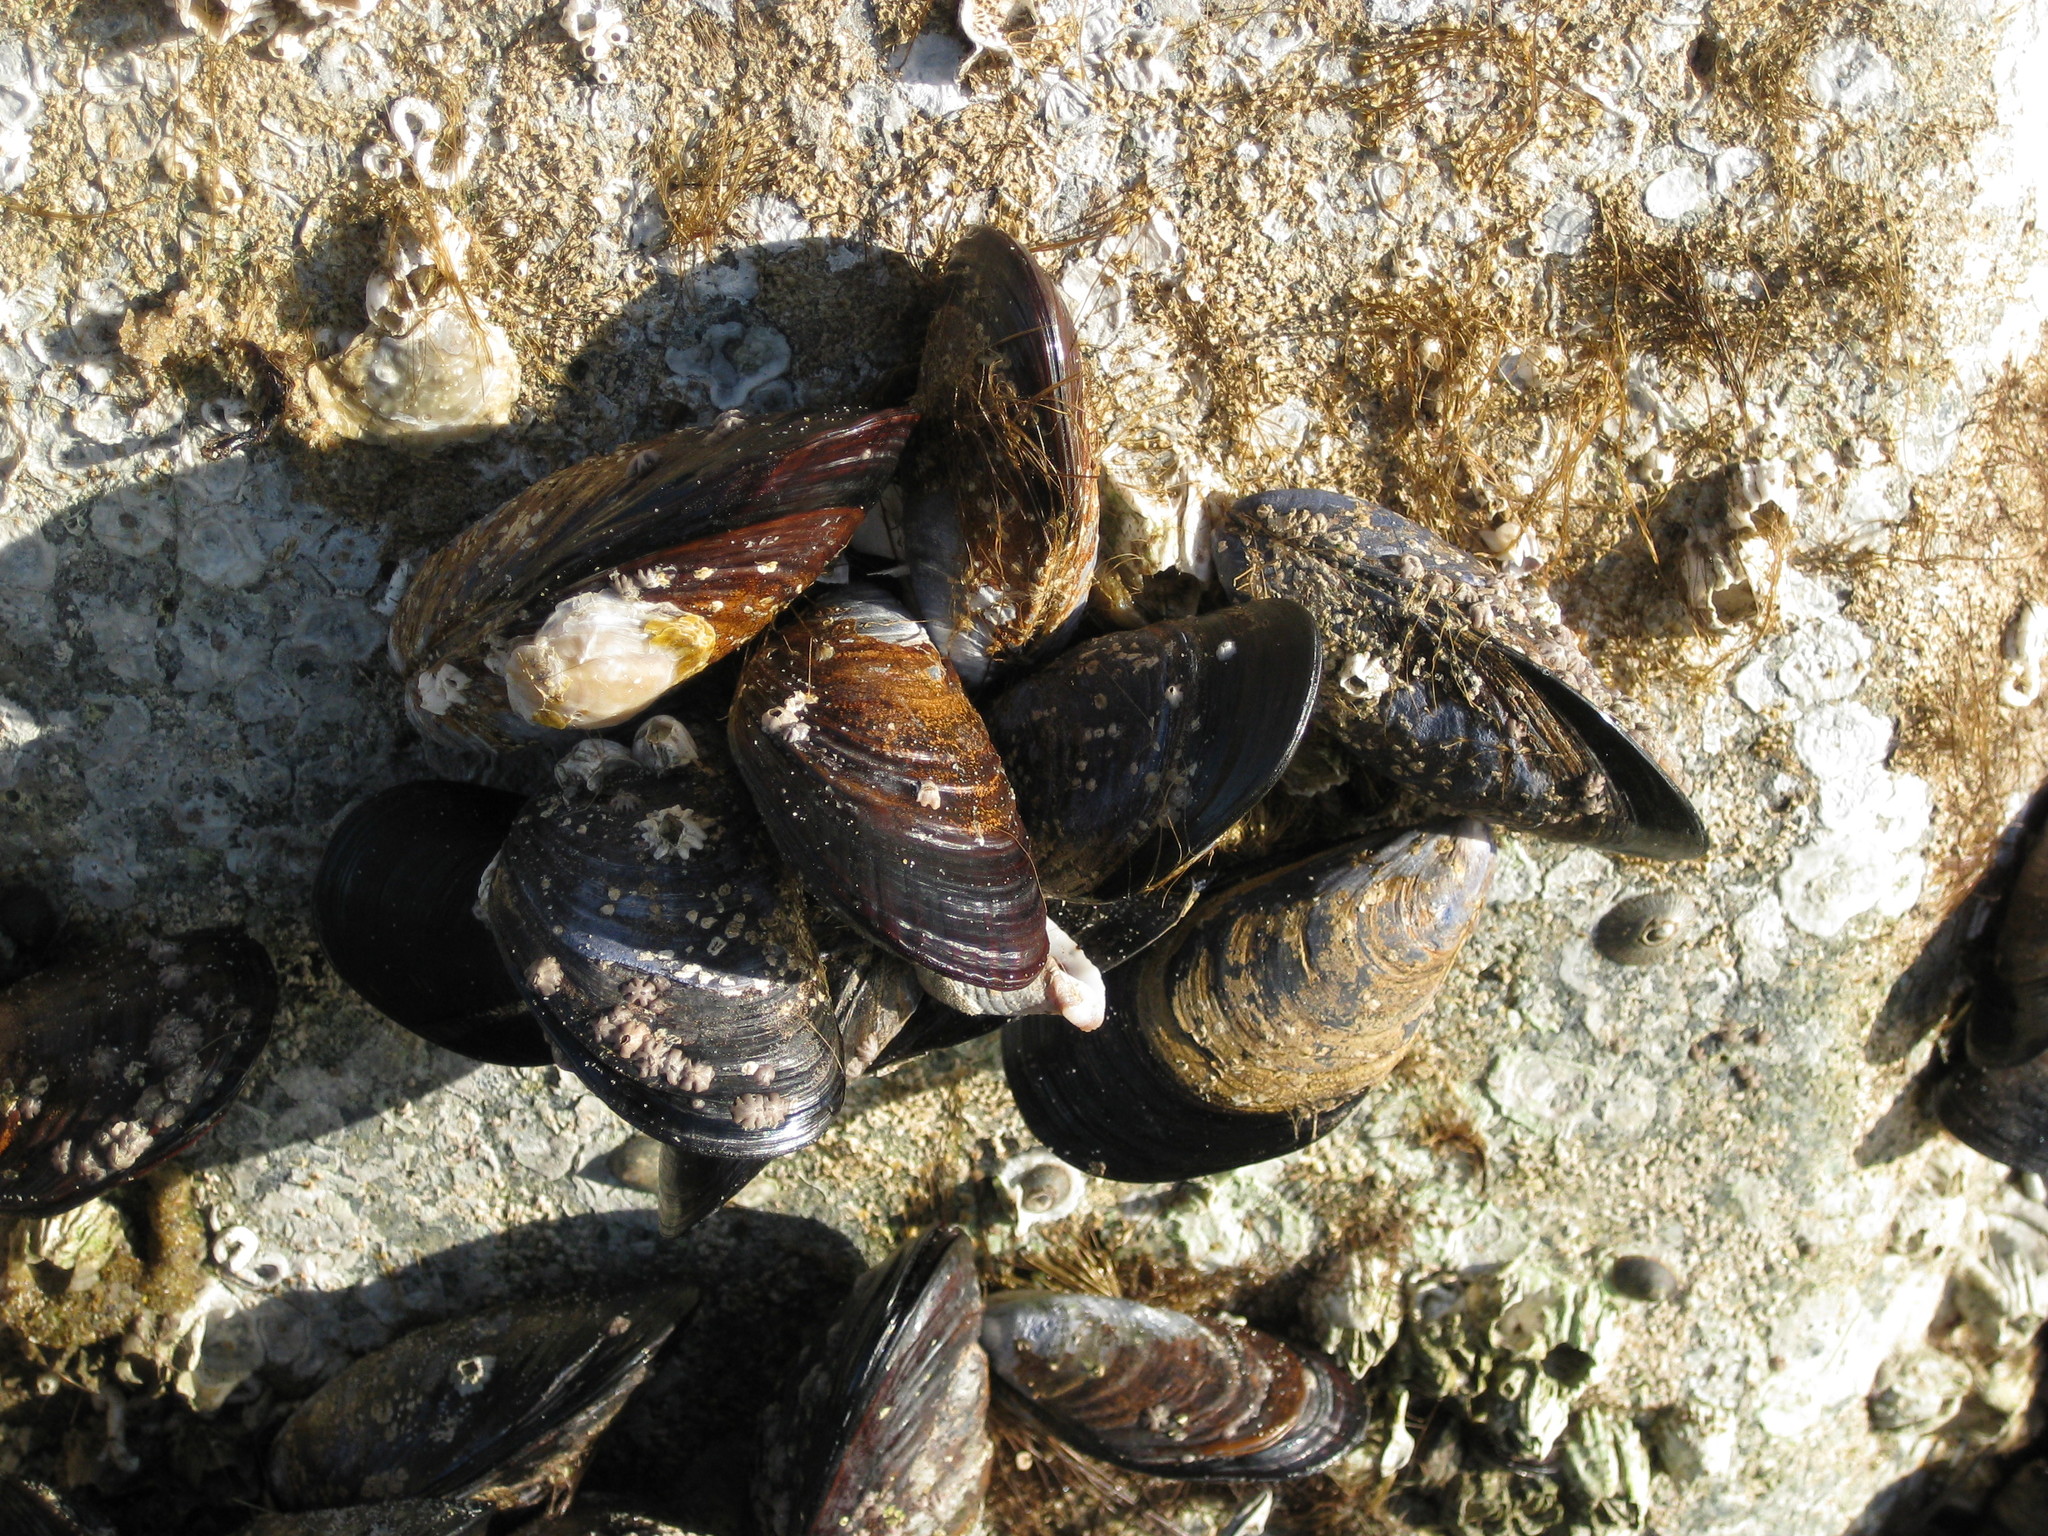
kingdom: Animalia
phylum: Mollusca
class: Bivalvia
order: Mytilida
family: Mytilidae
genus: Mytilus
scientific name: Mytilus californianus
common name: California mussel
